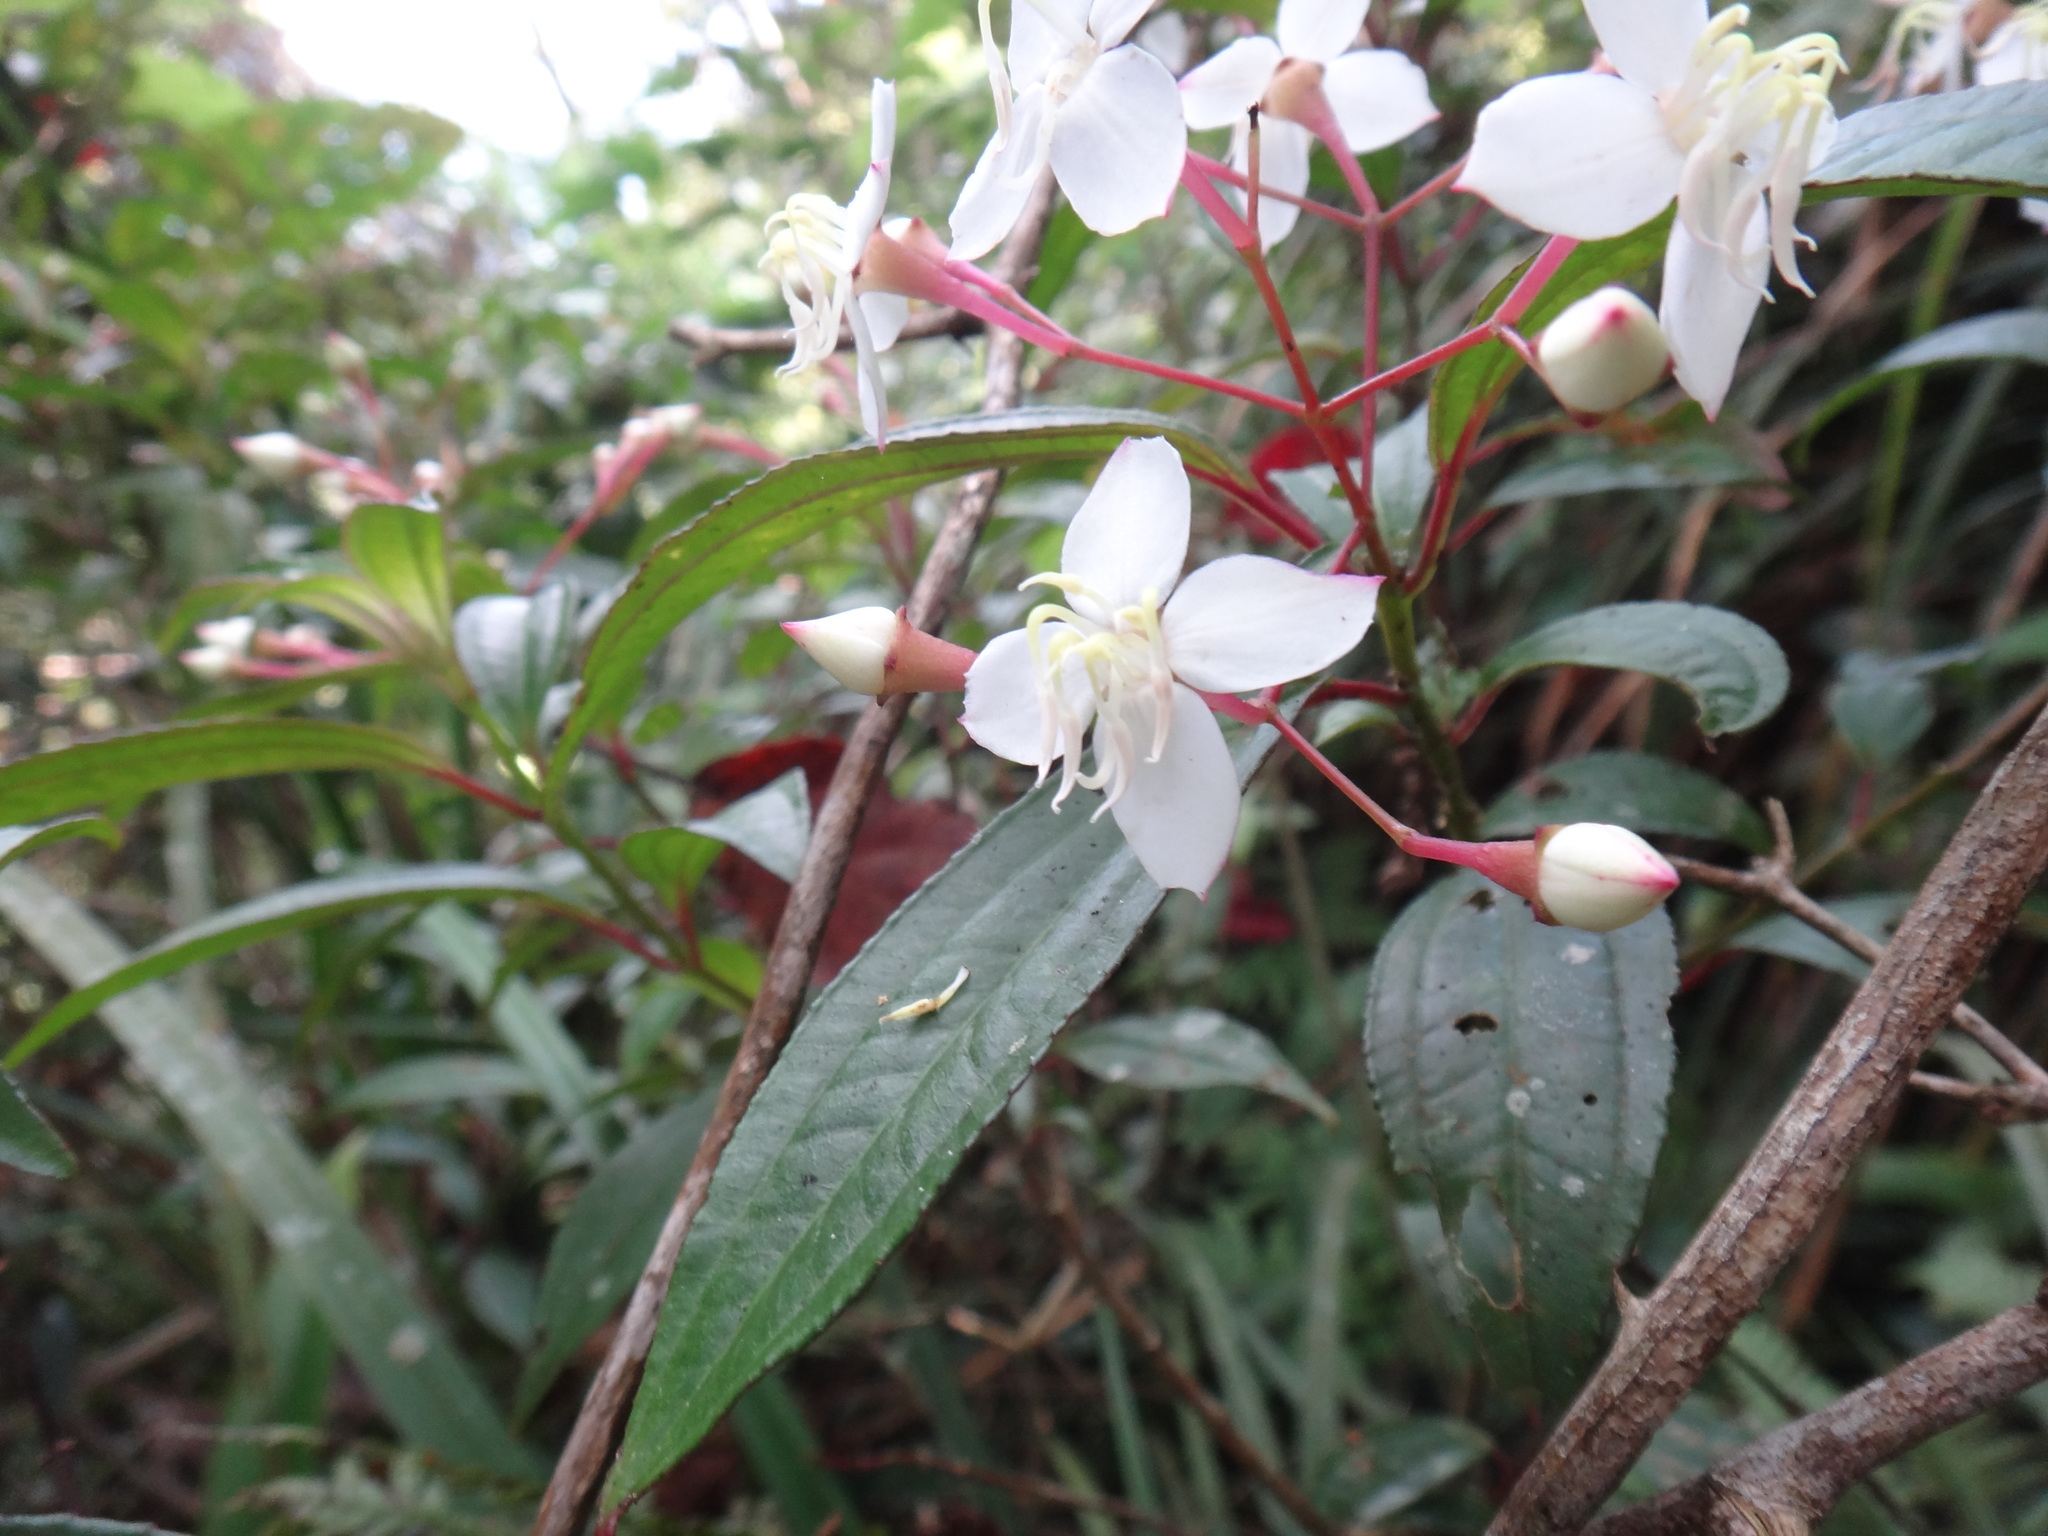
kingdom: Plantae
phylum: Tracheophyta
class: Magnoliopsida
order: Myrtales
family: Melastomataceae
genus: Bredia
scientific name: Bredia oldhamii
